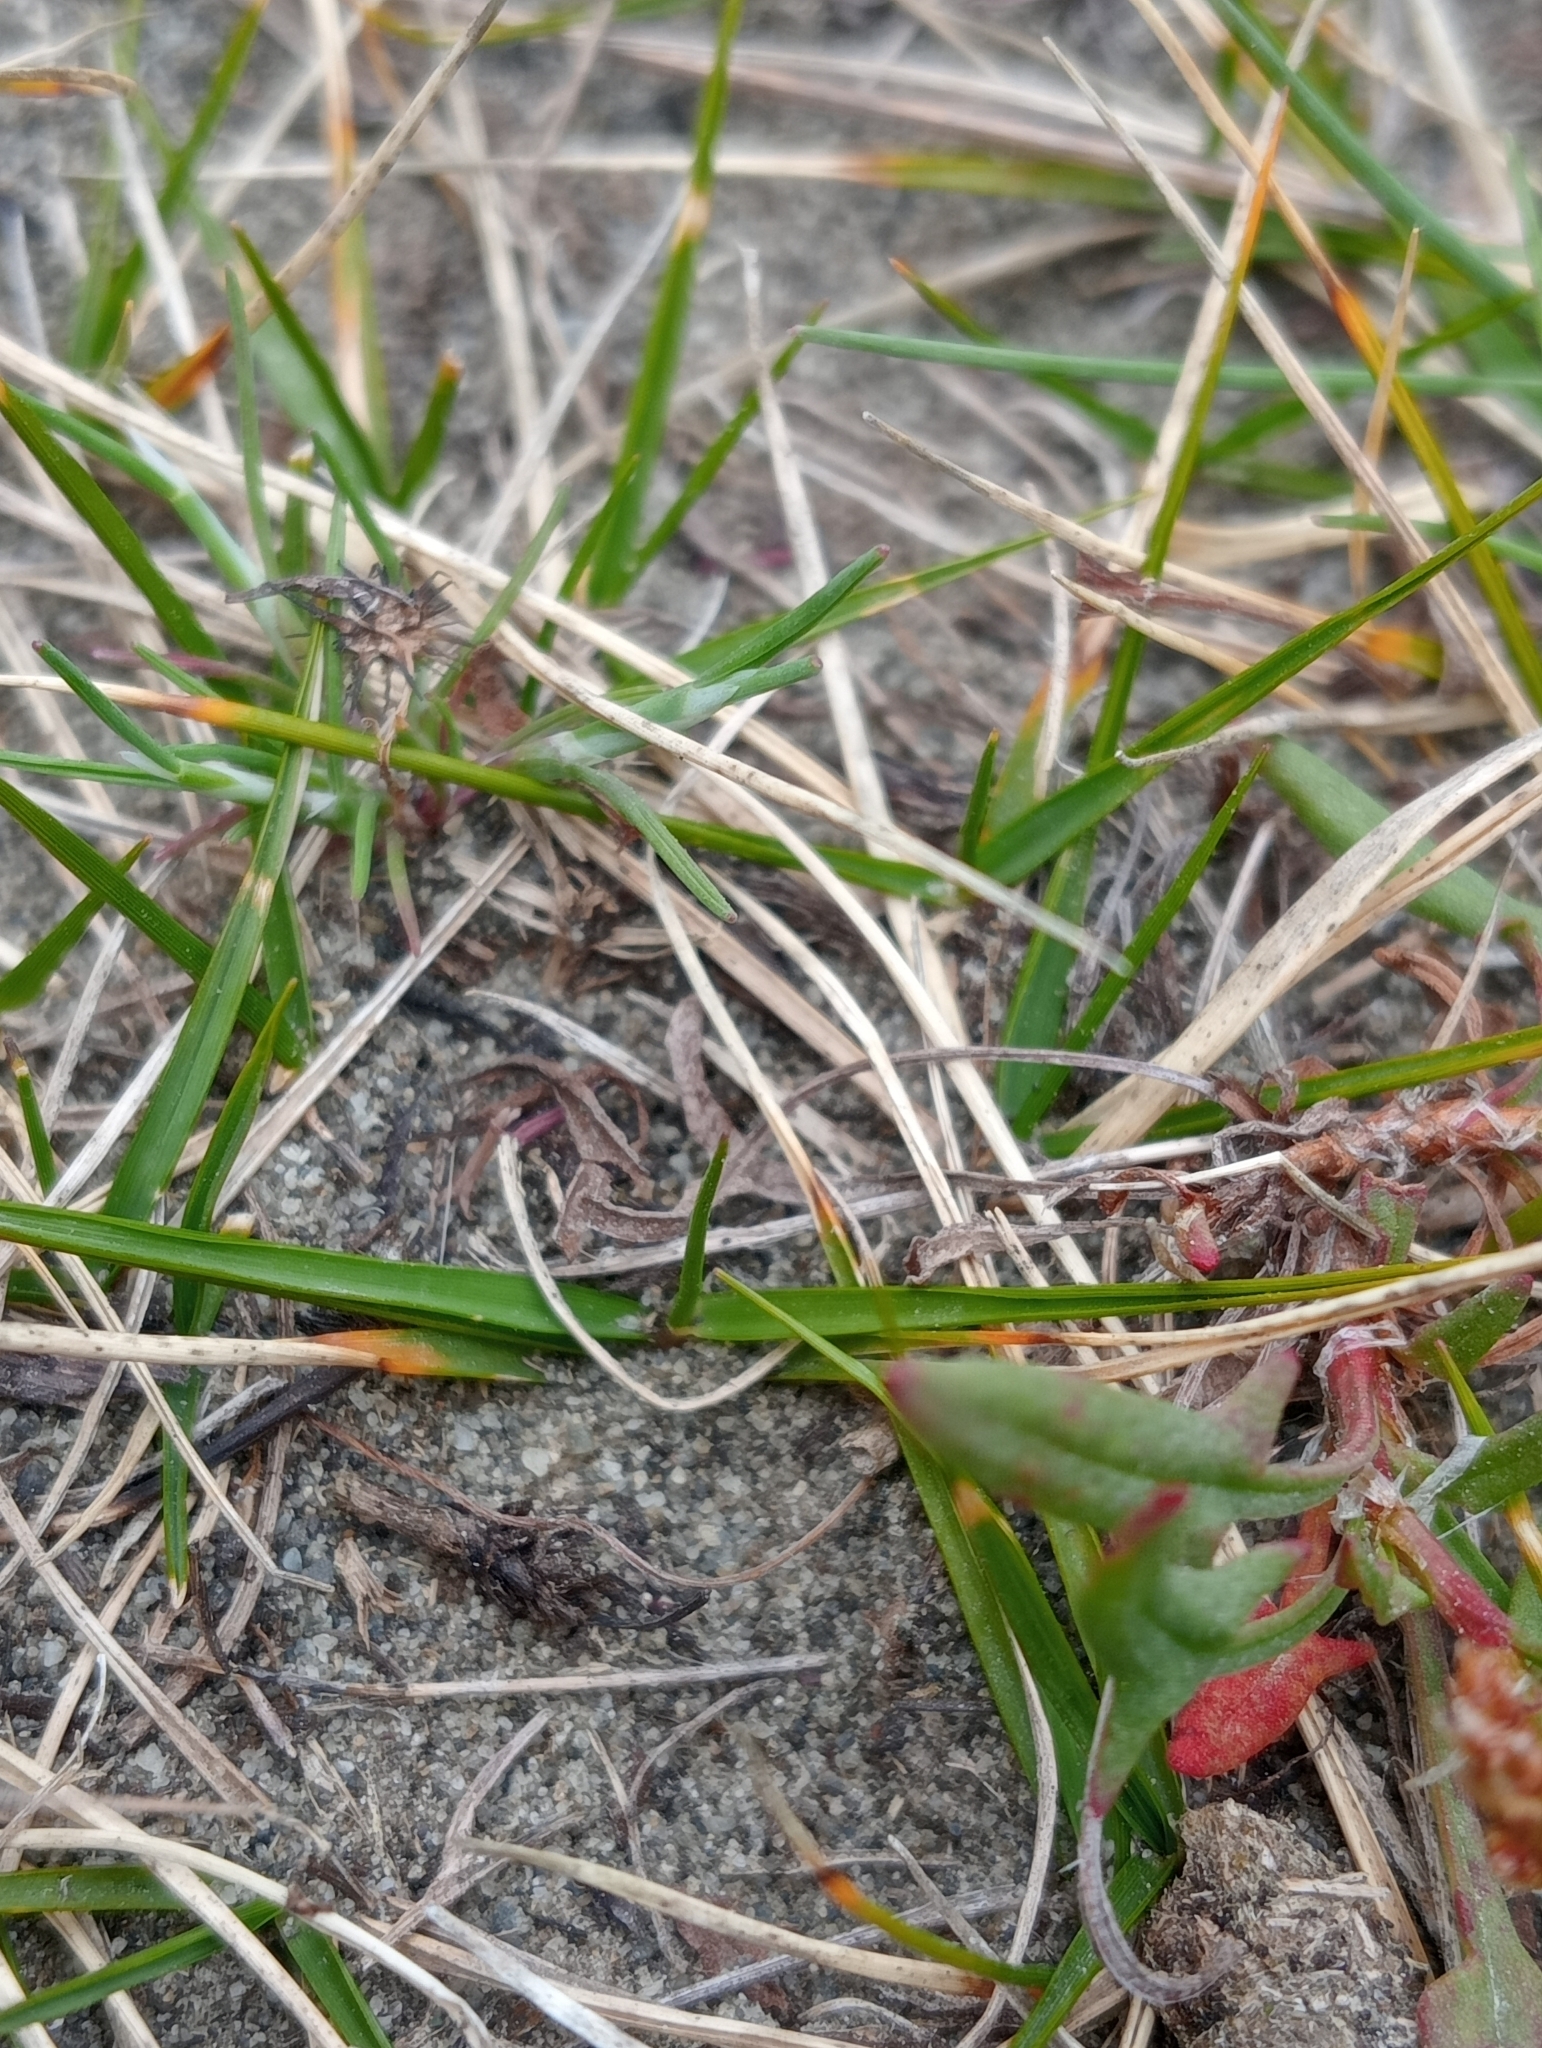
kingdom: Plantae
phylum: Tracheophyta
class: Liliopsida
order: Poales
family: Poaceae
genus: Zoysia
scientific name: Zoysia minima
